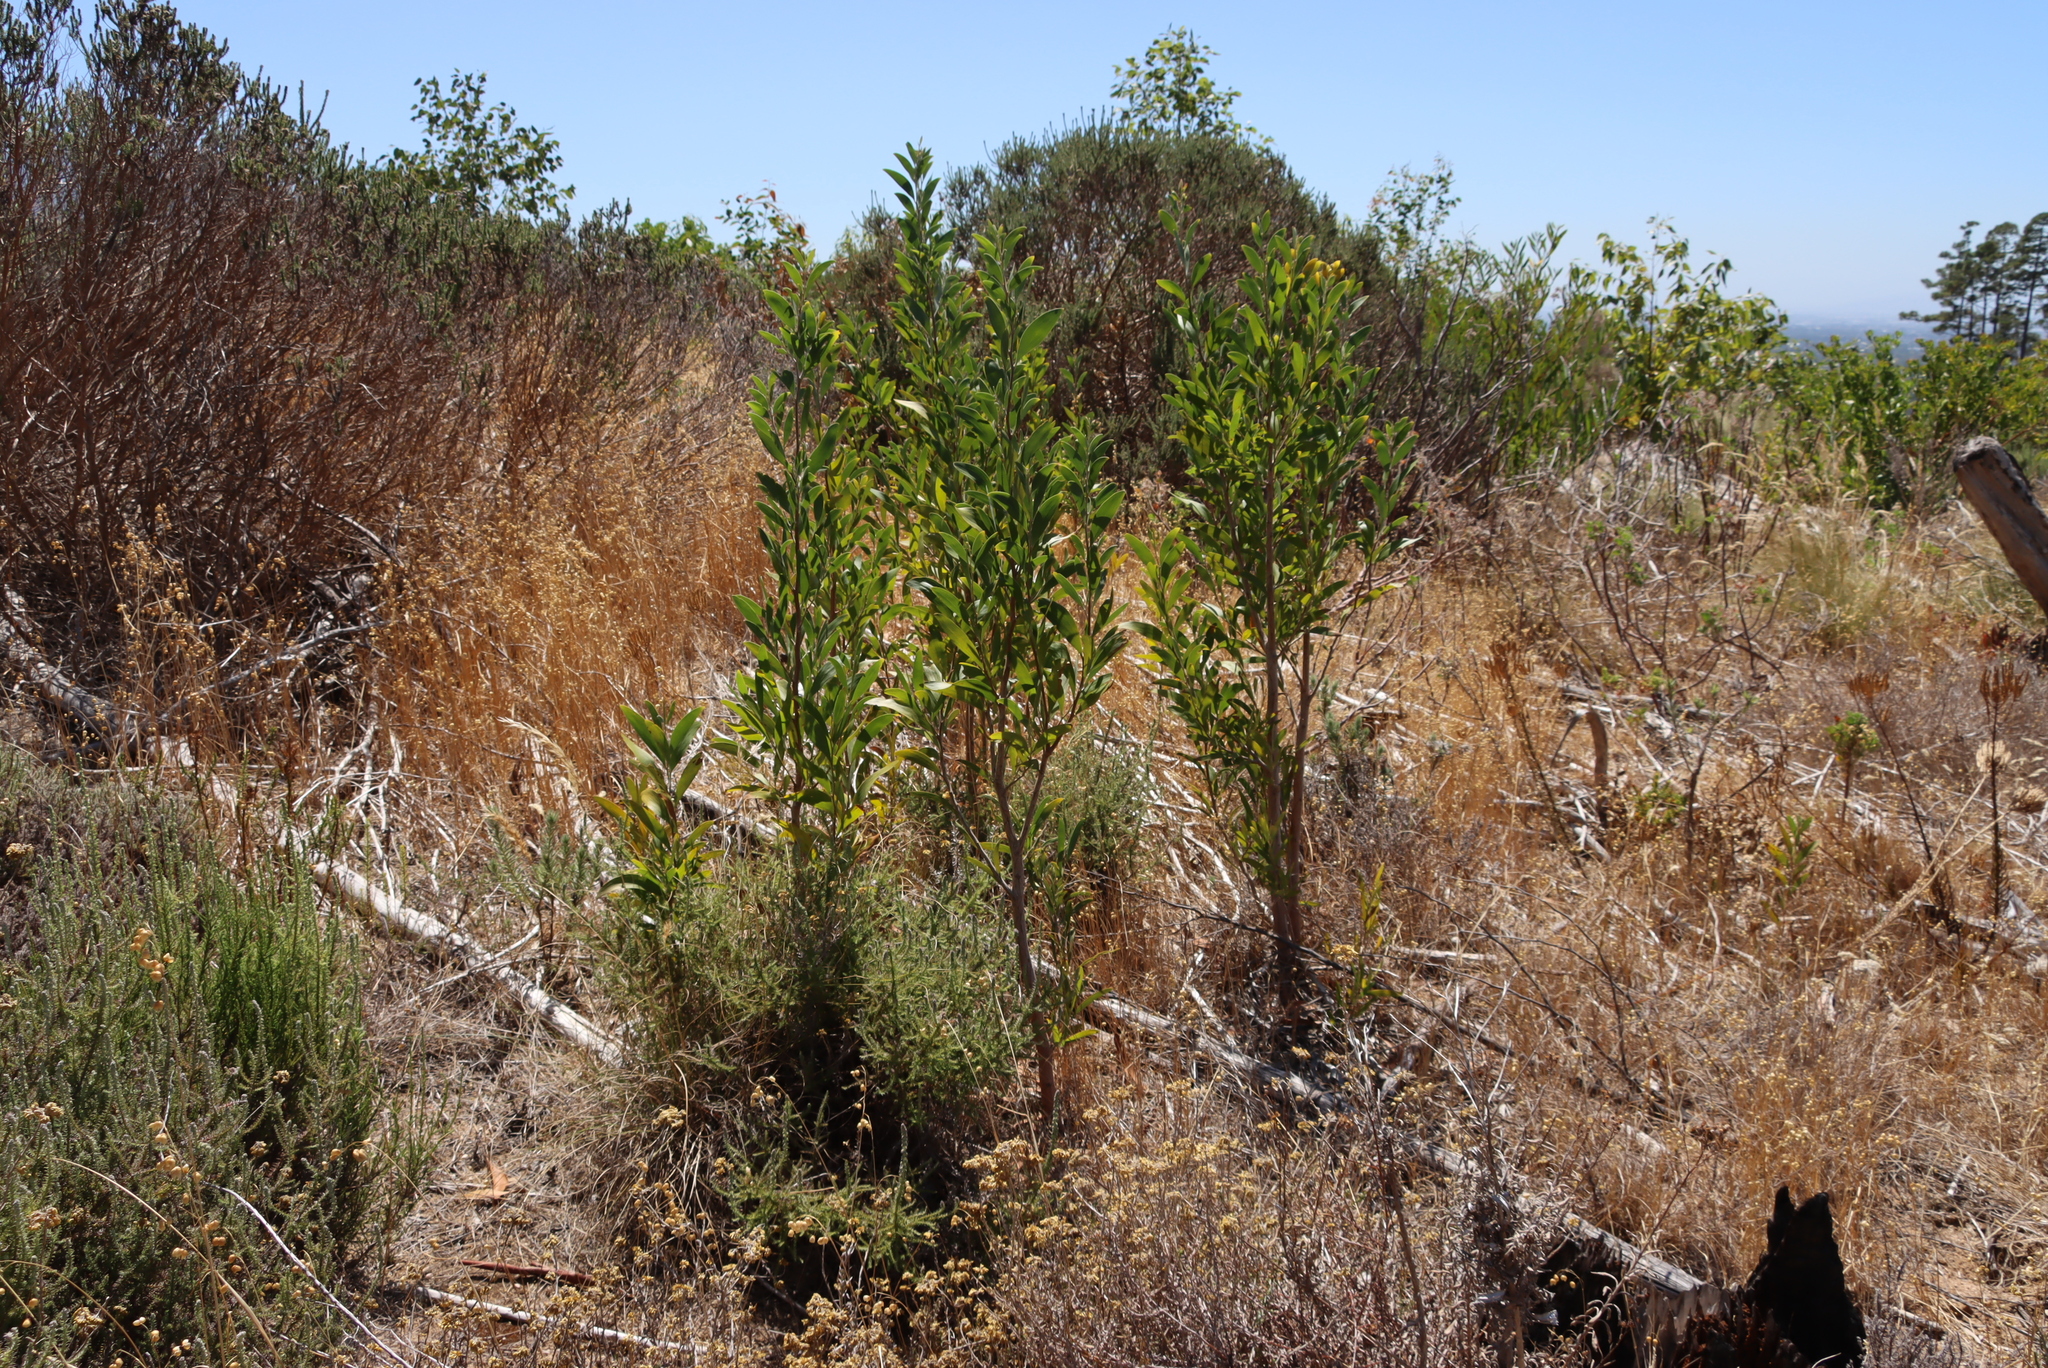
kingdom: Plantae
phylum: Tracheophyta
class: Magnoliopsida
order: Fabales
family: Fabaceae
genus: Acacia
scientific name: Acacia melanoxylon
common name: Blackwood
